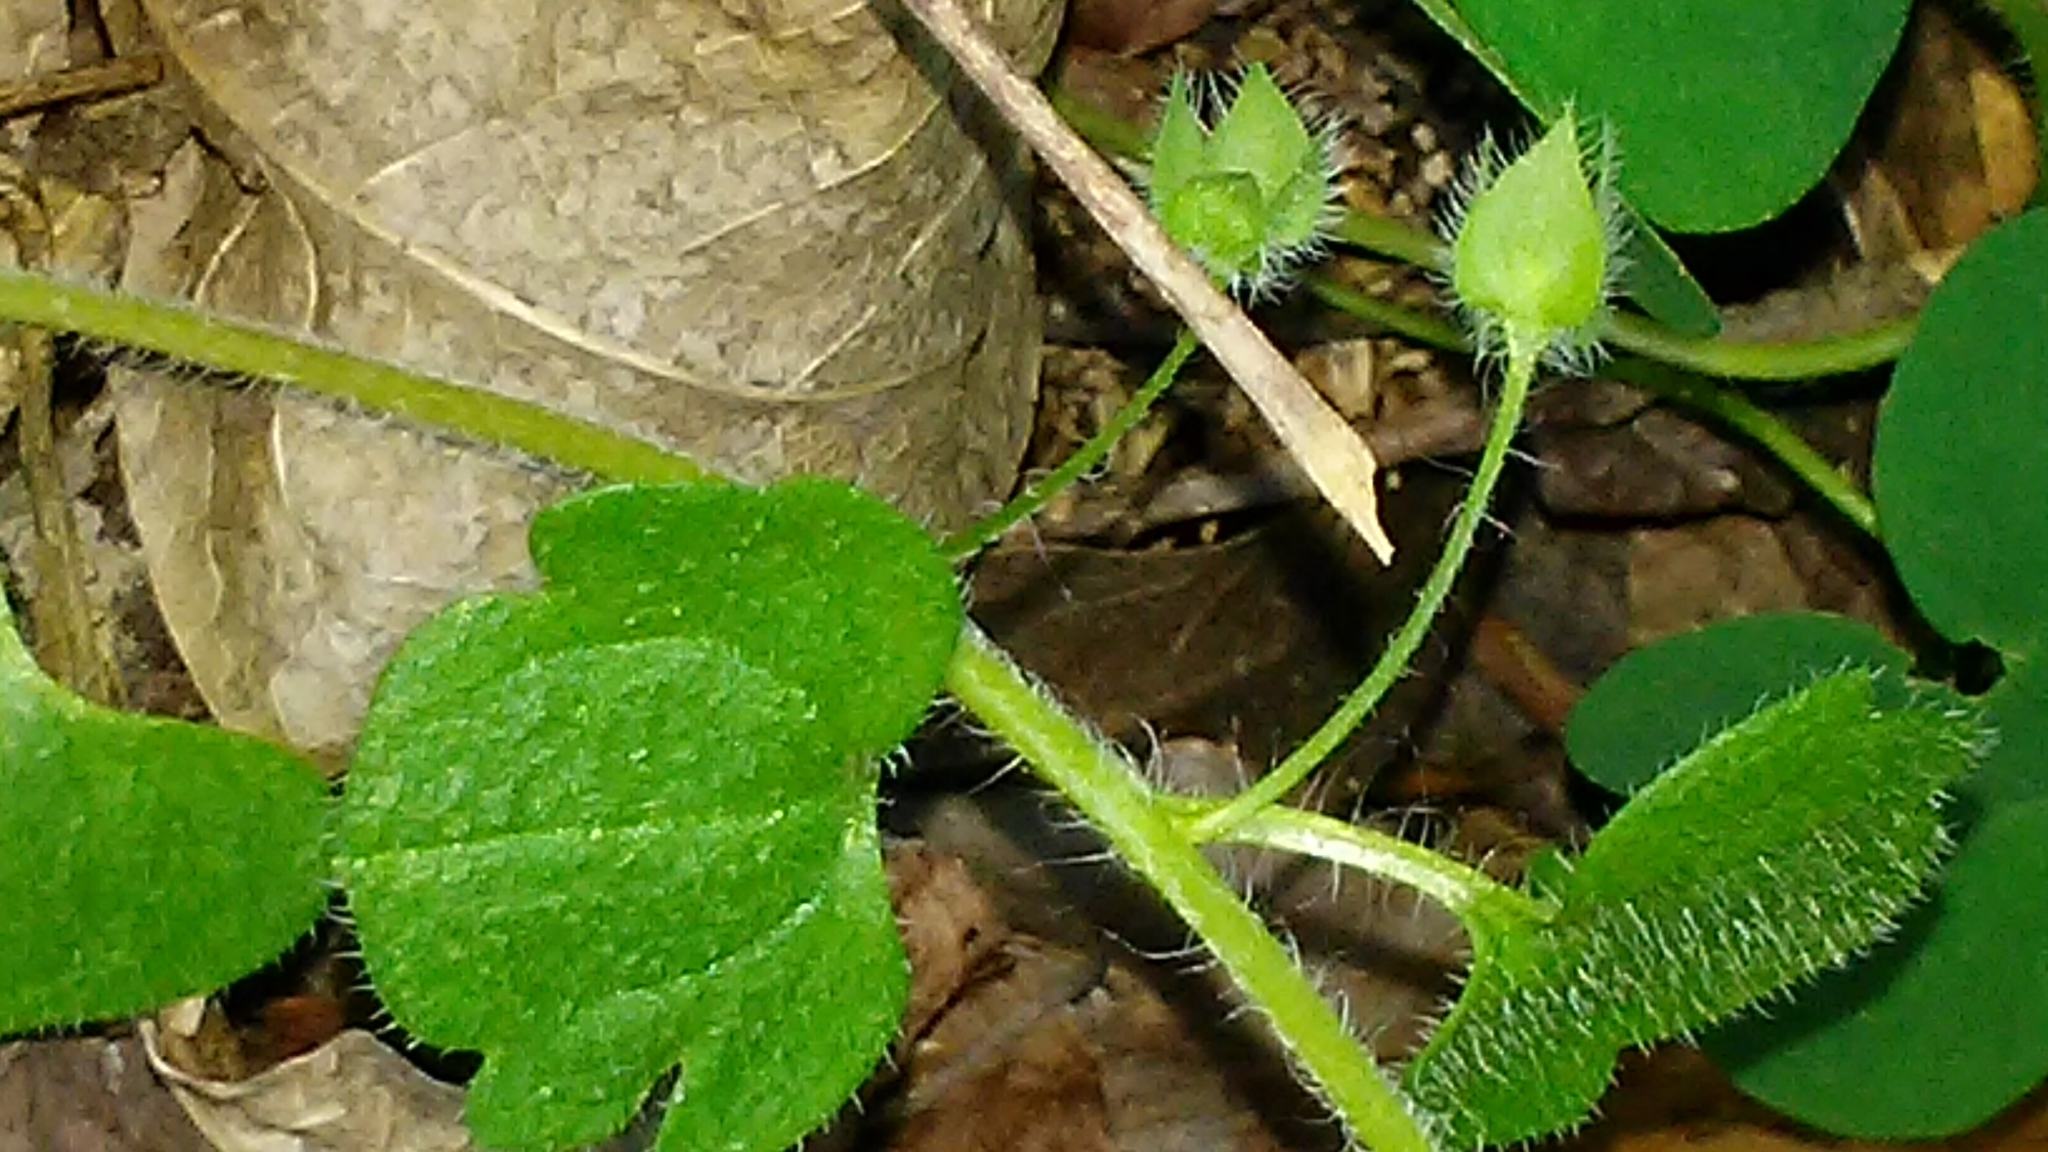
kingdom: Plantae
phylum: Tracheophyta
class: Magnoliopsida
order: Lamiales
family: Plantaginaceae
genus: Veronica
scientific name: Veronica hederifolia
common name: Ivy-leaved speedwell
